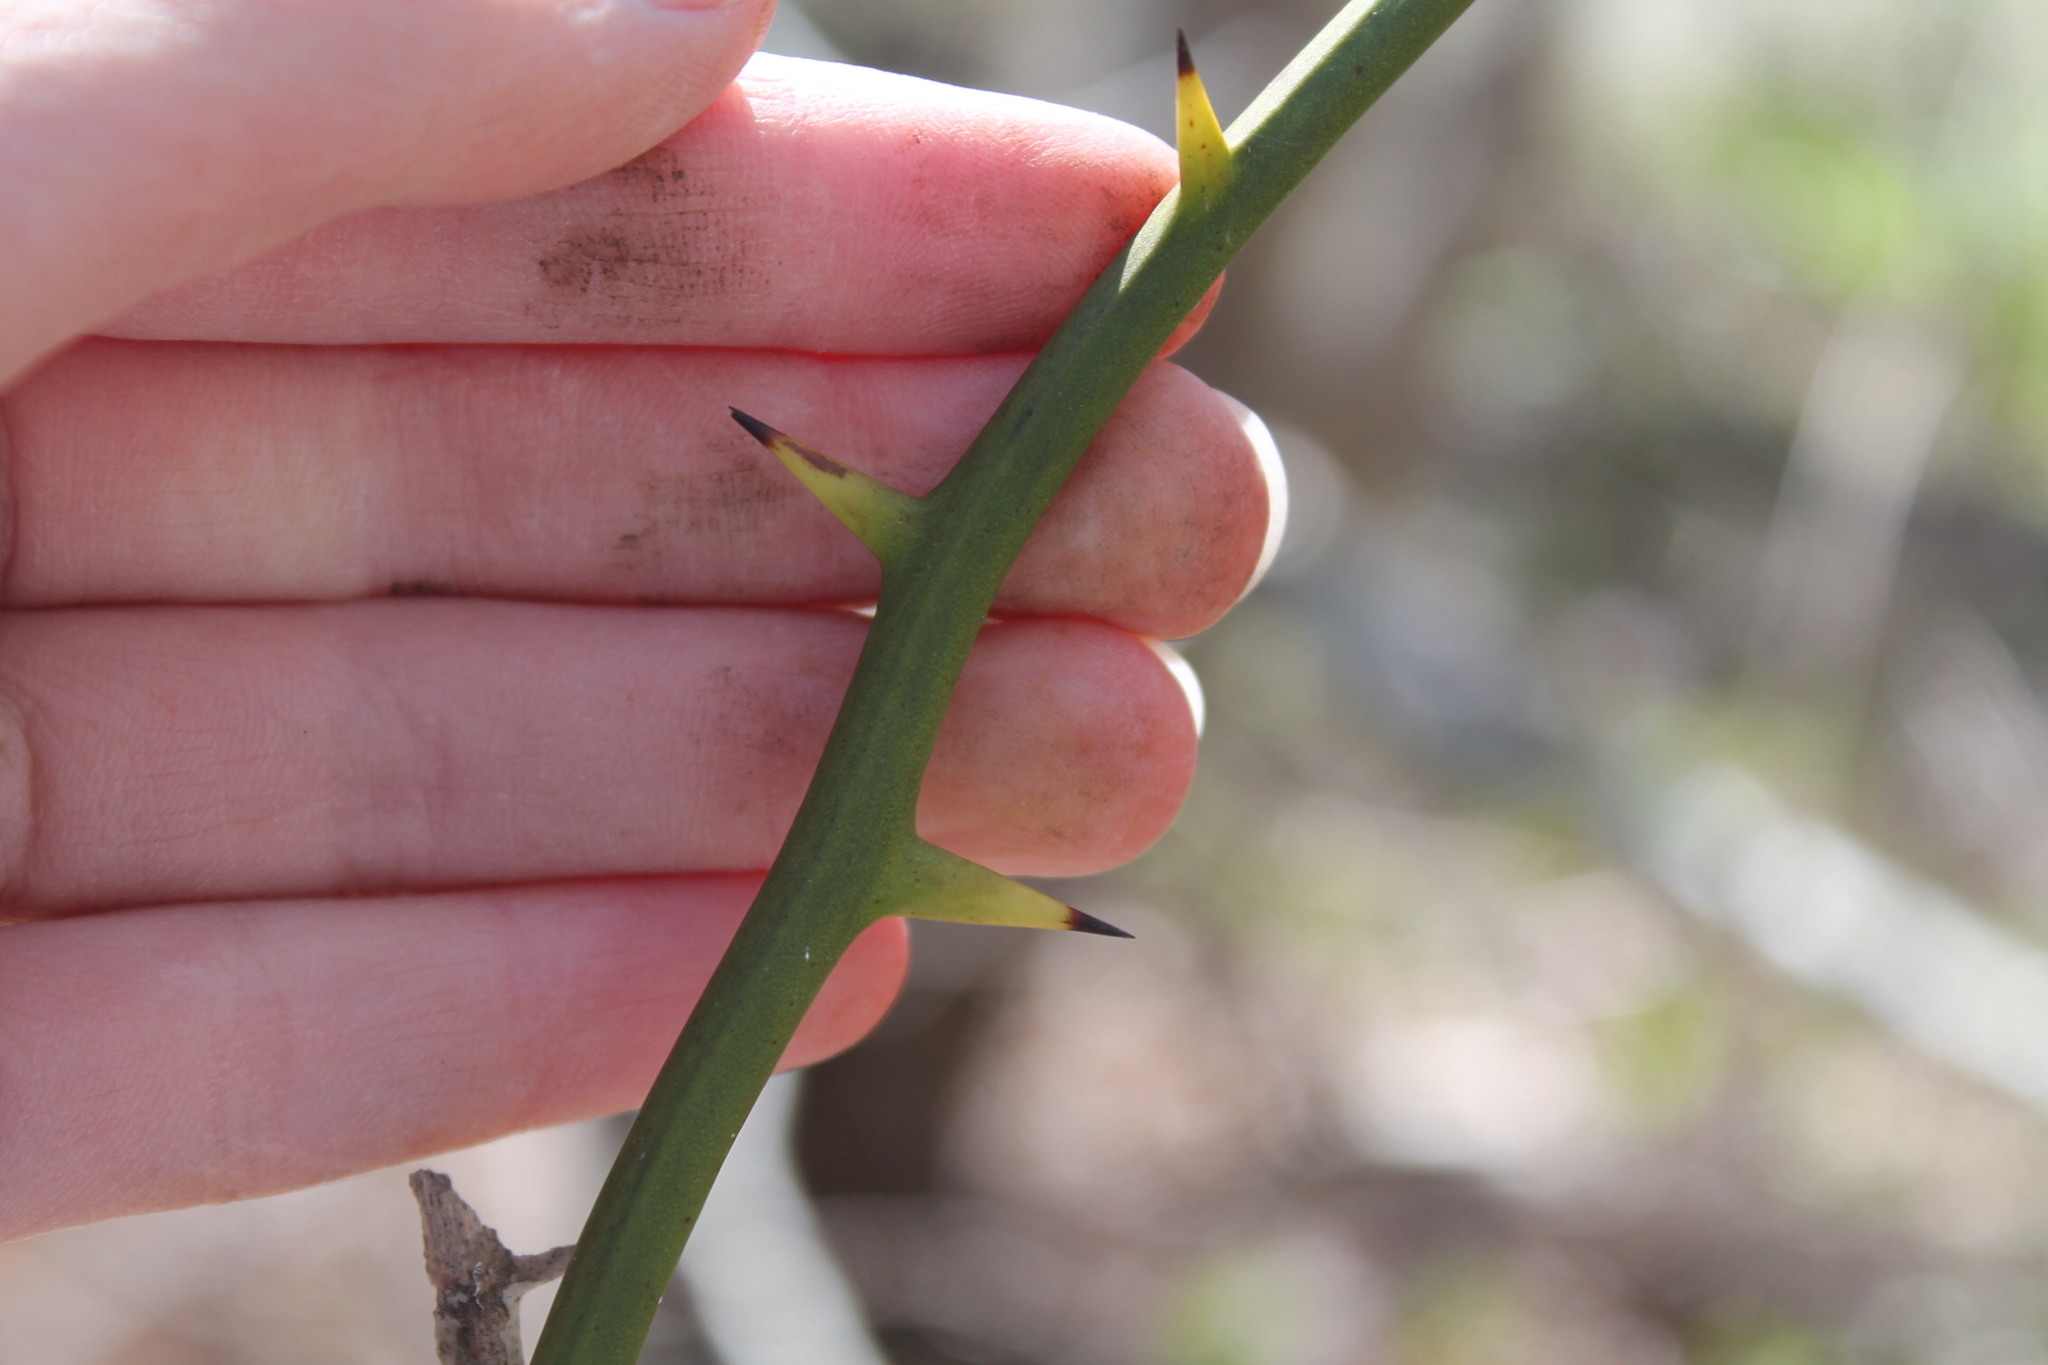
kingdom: Plantae
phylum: Tracheophyta
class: Liliopsida
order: Liliales
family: Smilacaceae
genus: Smilax
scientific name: Smilax rotundifolia
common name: Bullbriar
